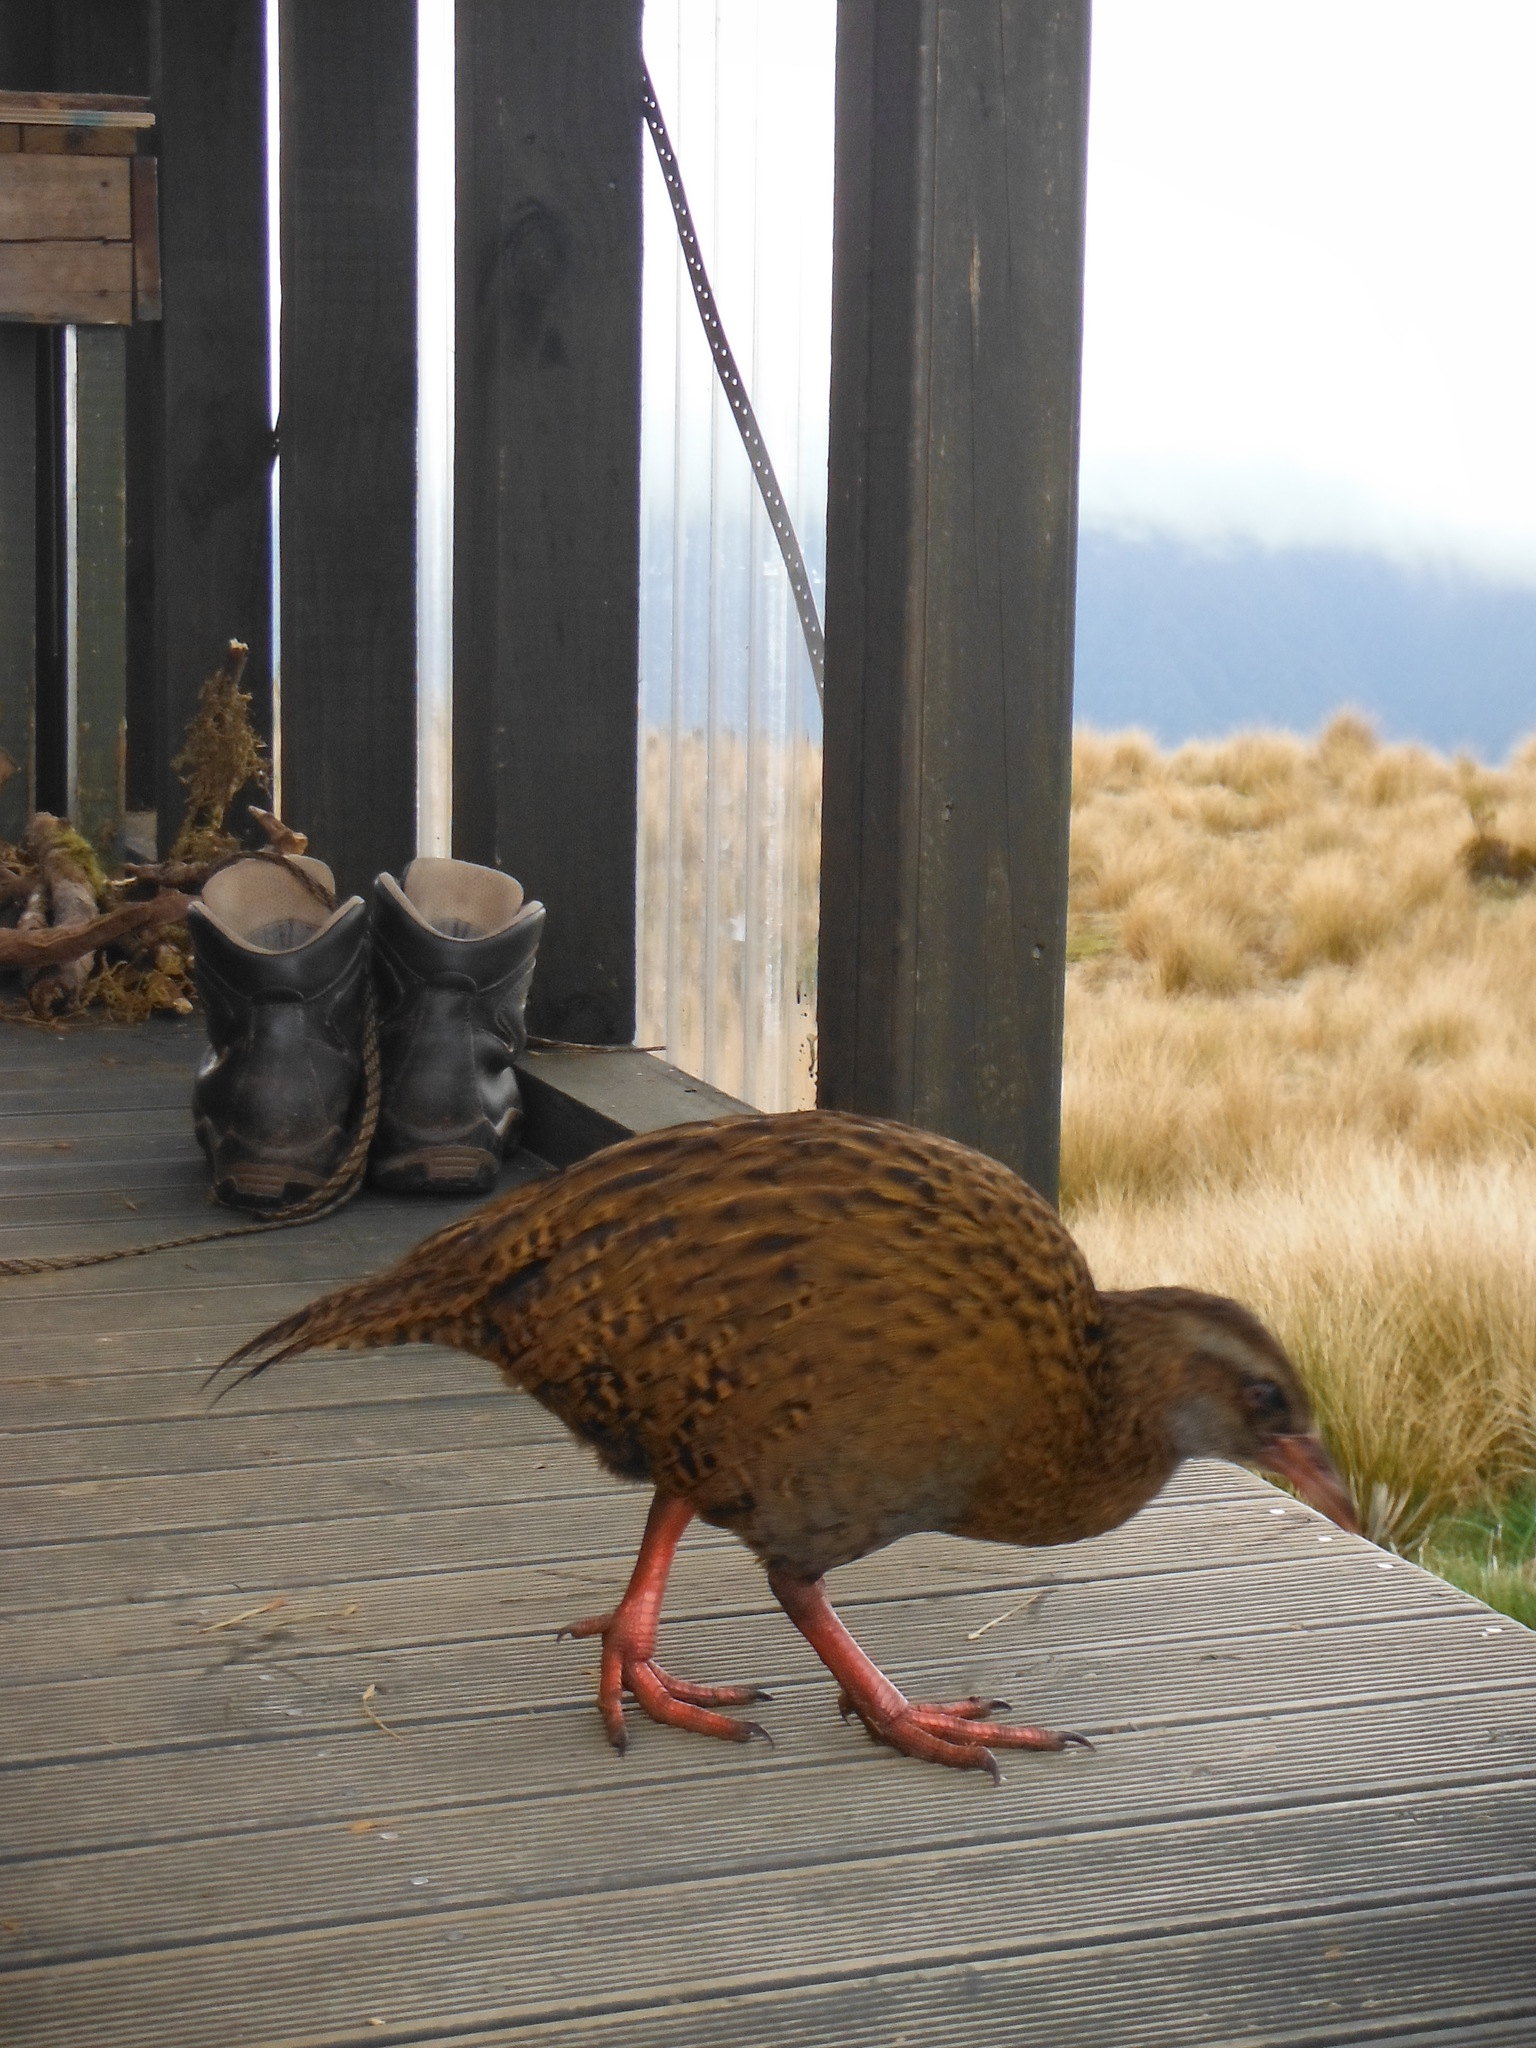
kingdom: Animalia
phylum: Chordata
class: Aves
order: Gruiformes
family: Rallidae
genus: Gallirallus
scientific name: Gallirallus australis
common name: Weka
